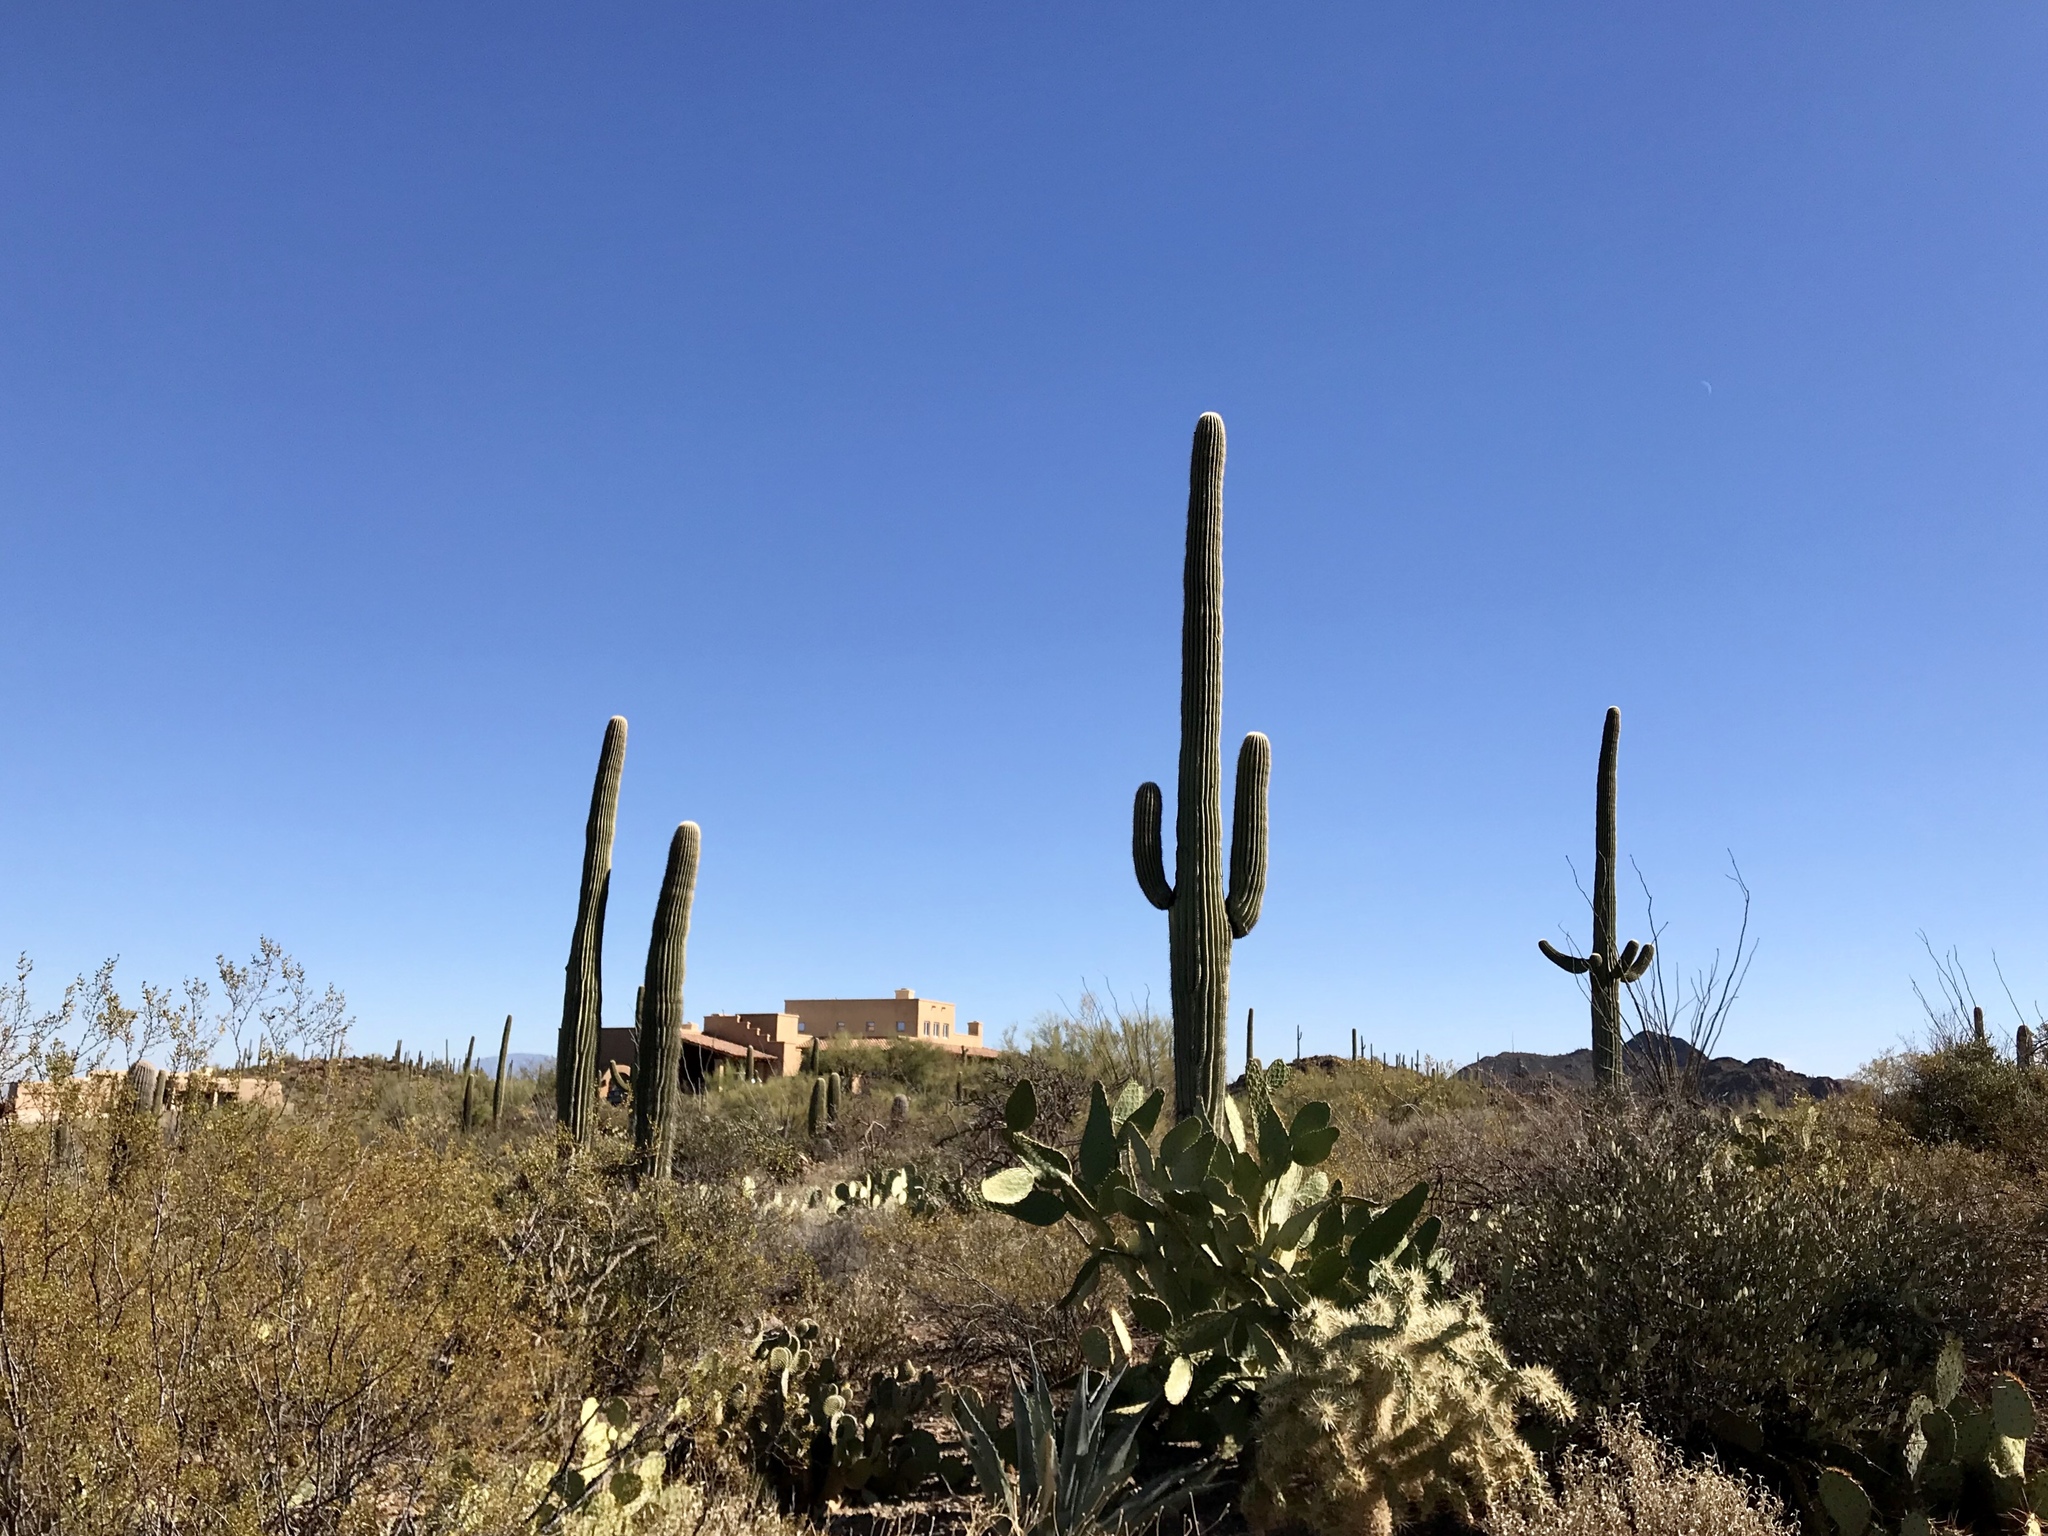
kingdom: Plantae
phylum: Tracheophyta
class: Magnoliopsida
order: Caryophyllales
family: Cactaceae
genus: Carnegiea
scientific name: Carnegiea gigantea
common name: Saguaro
